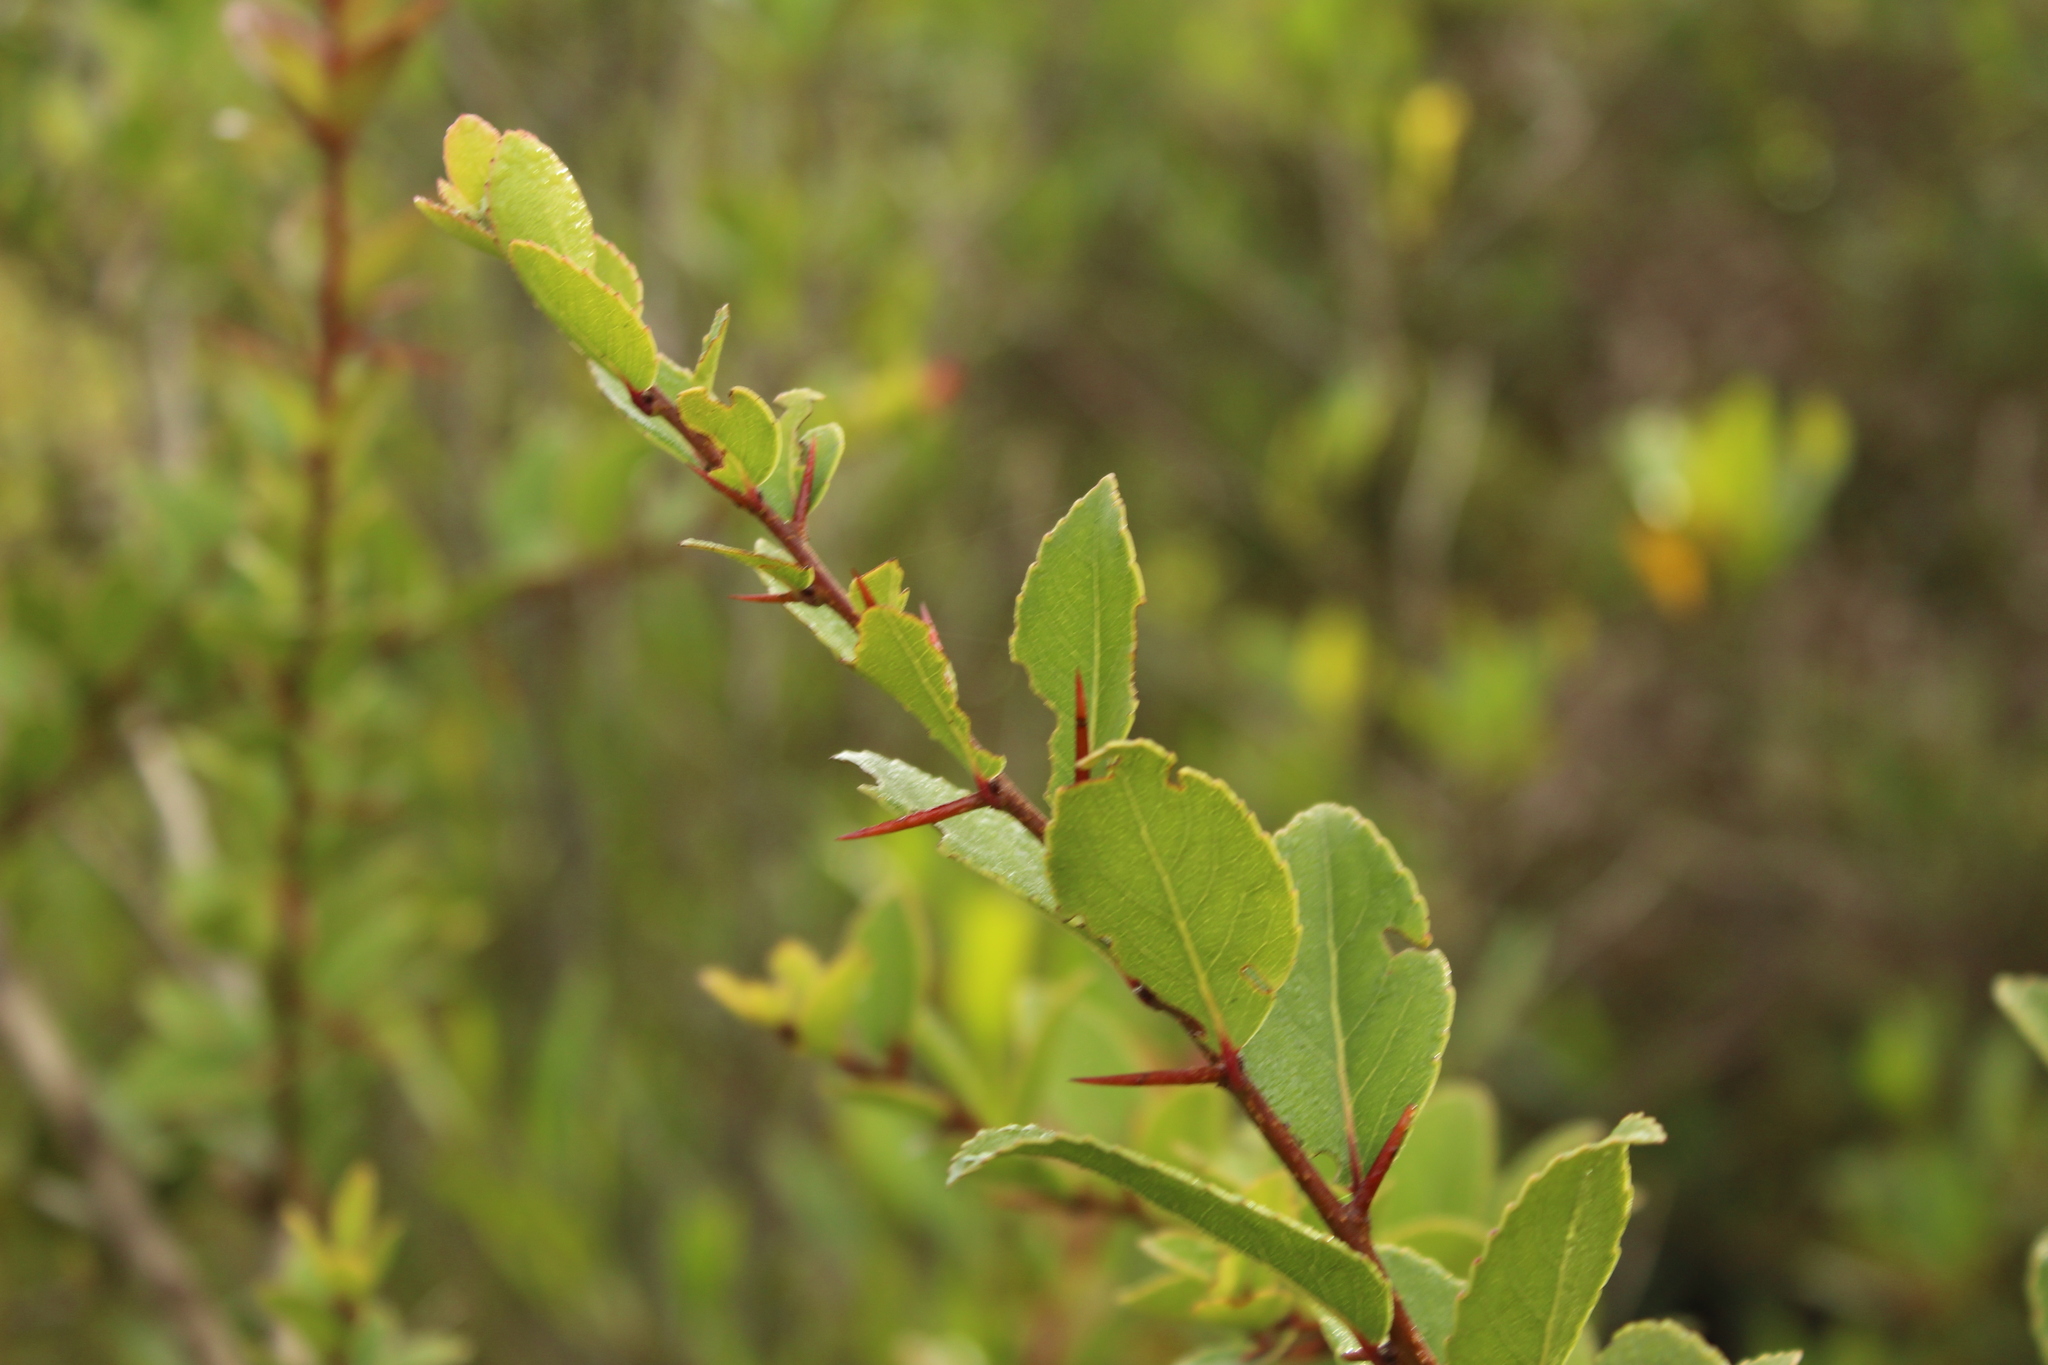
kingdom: Plantae
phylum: Tracheophyta
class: Magnoliopsida
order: Malpighiales
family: Salicaceae
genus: Xylosma
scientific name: Xylosma spiculifera
